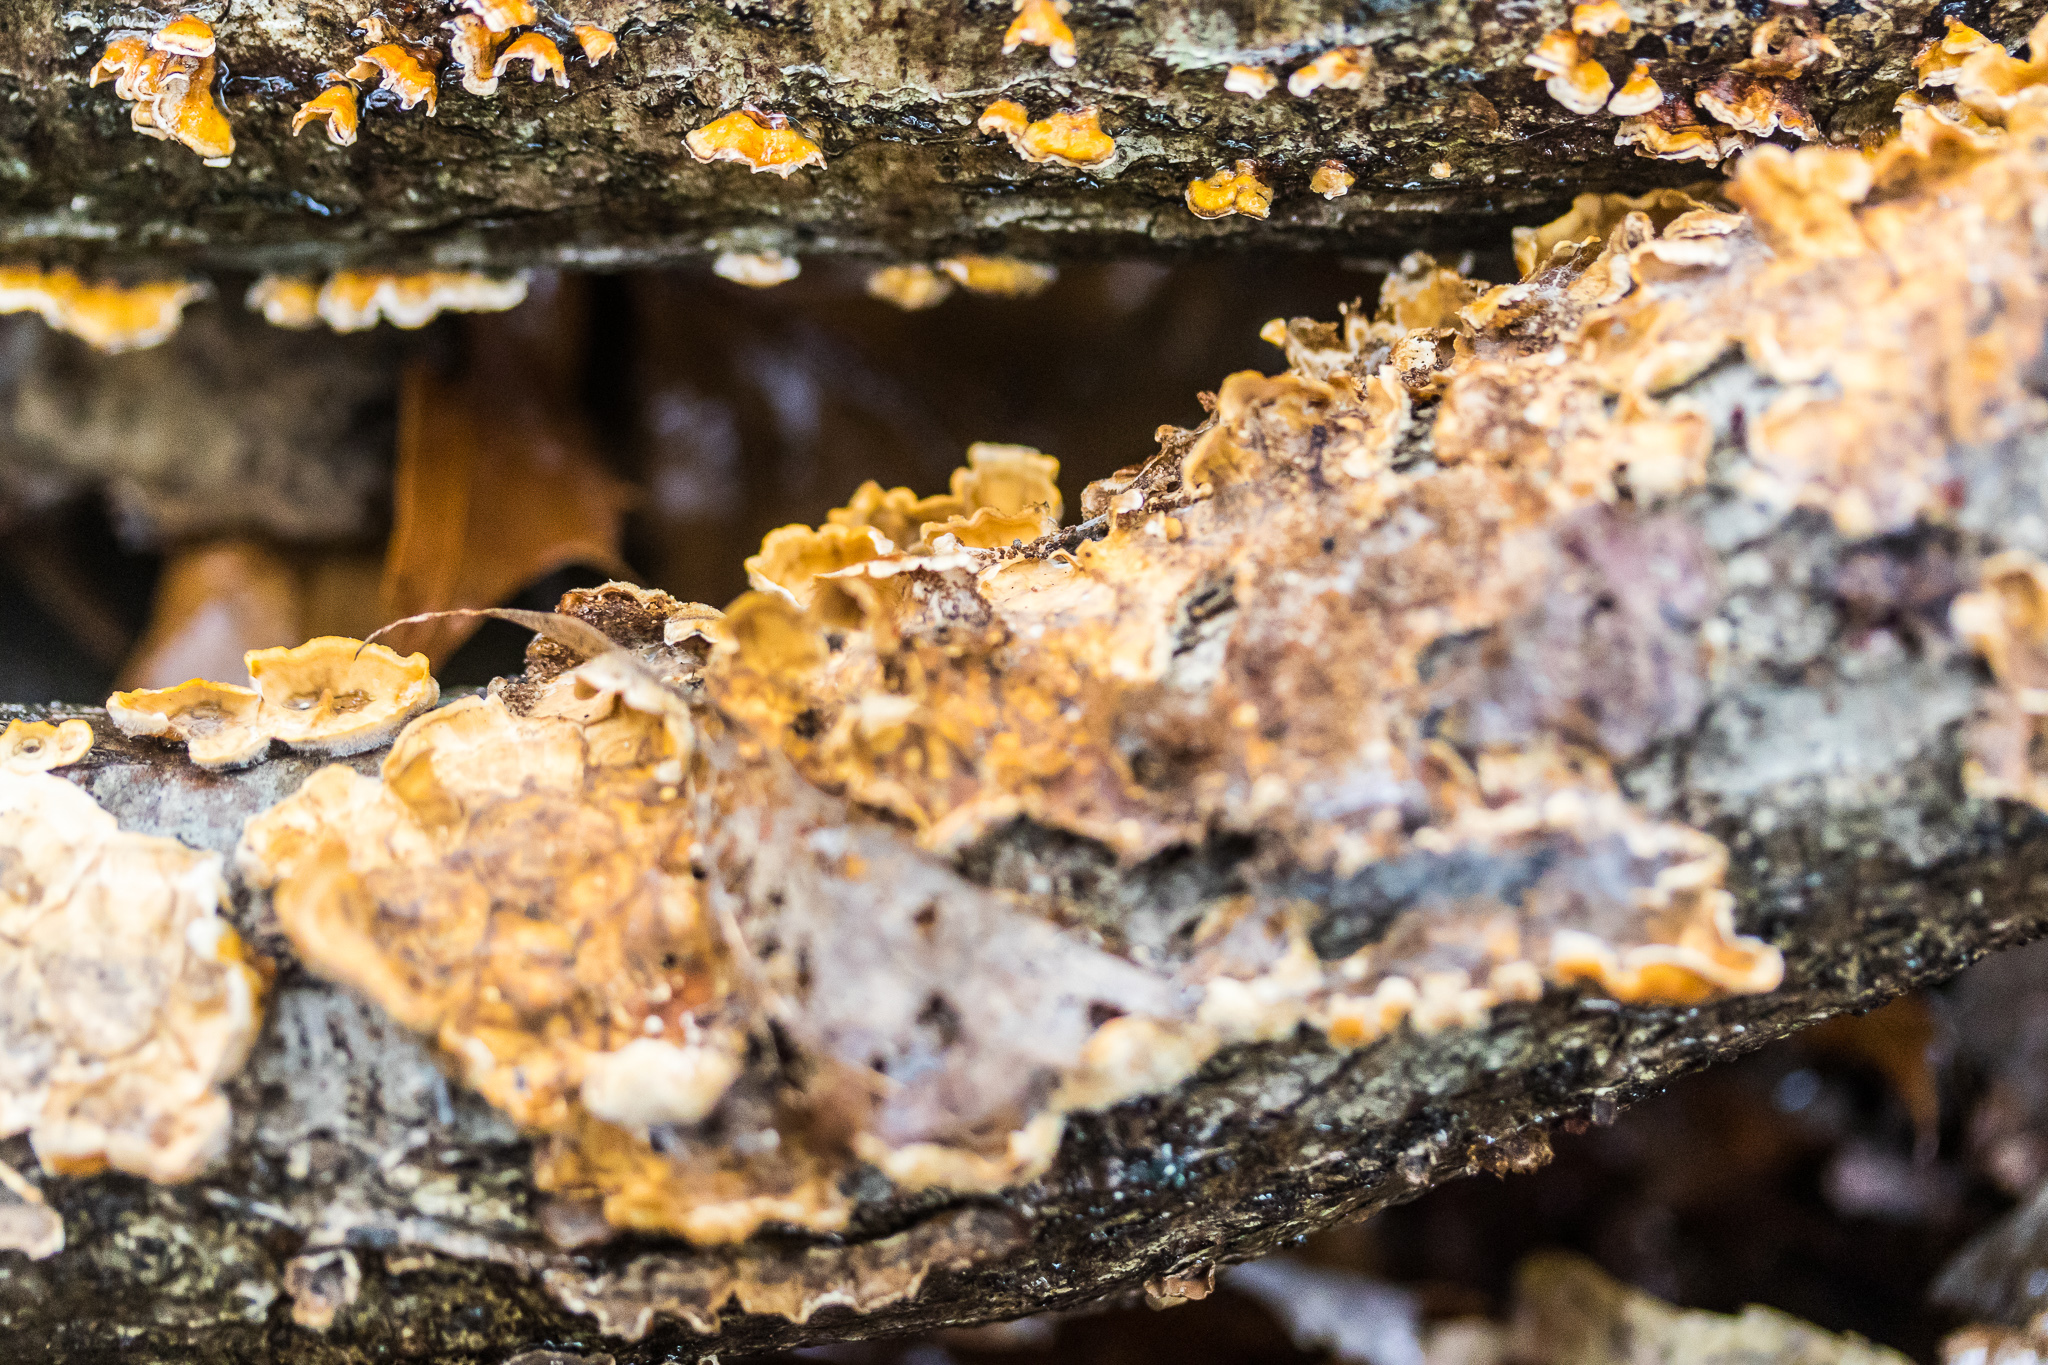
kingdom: Fungi
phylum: Basidiomycota
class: Agaricomycetes
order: Russulales
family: Stereaceae
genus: Stereum
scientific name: Stereum complicatum
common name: Crowded parchment
